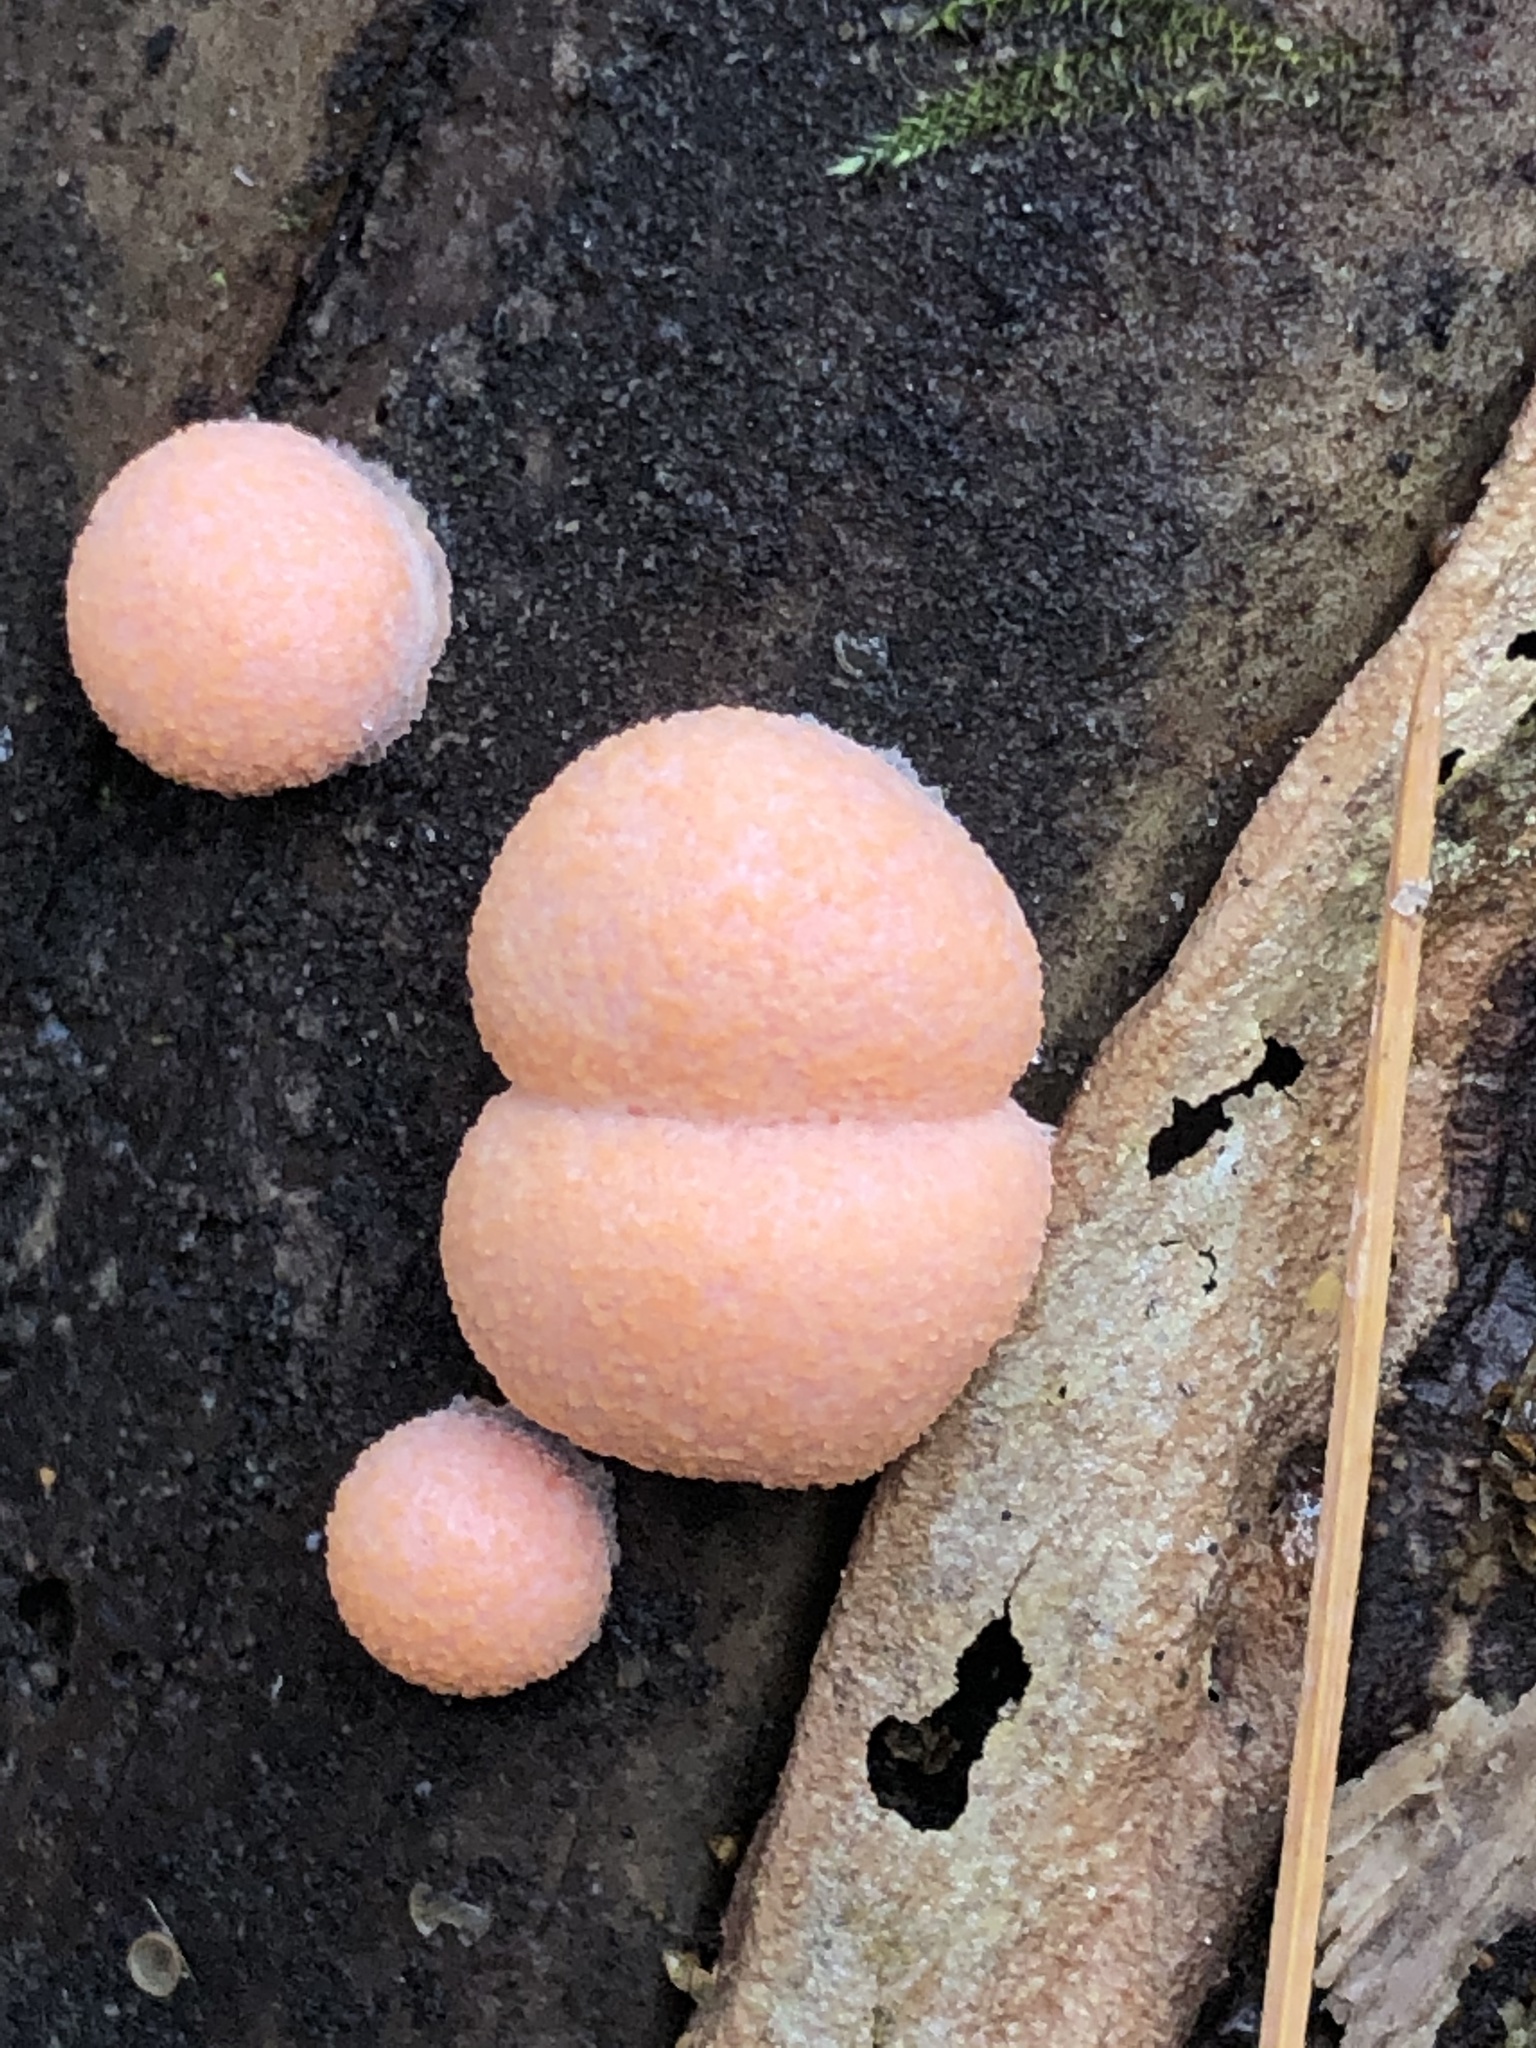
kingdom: Protozoa
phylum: Mycetozoa
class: Myxomycetes
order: Cribrariales
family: Tubiferaceae
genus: Lycogala
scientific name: Lycogala epidendrum
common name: Wolf's milk
